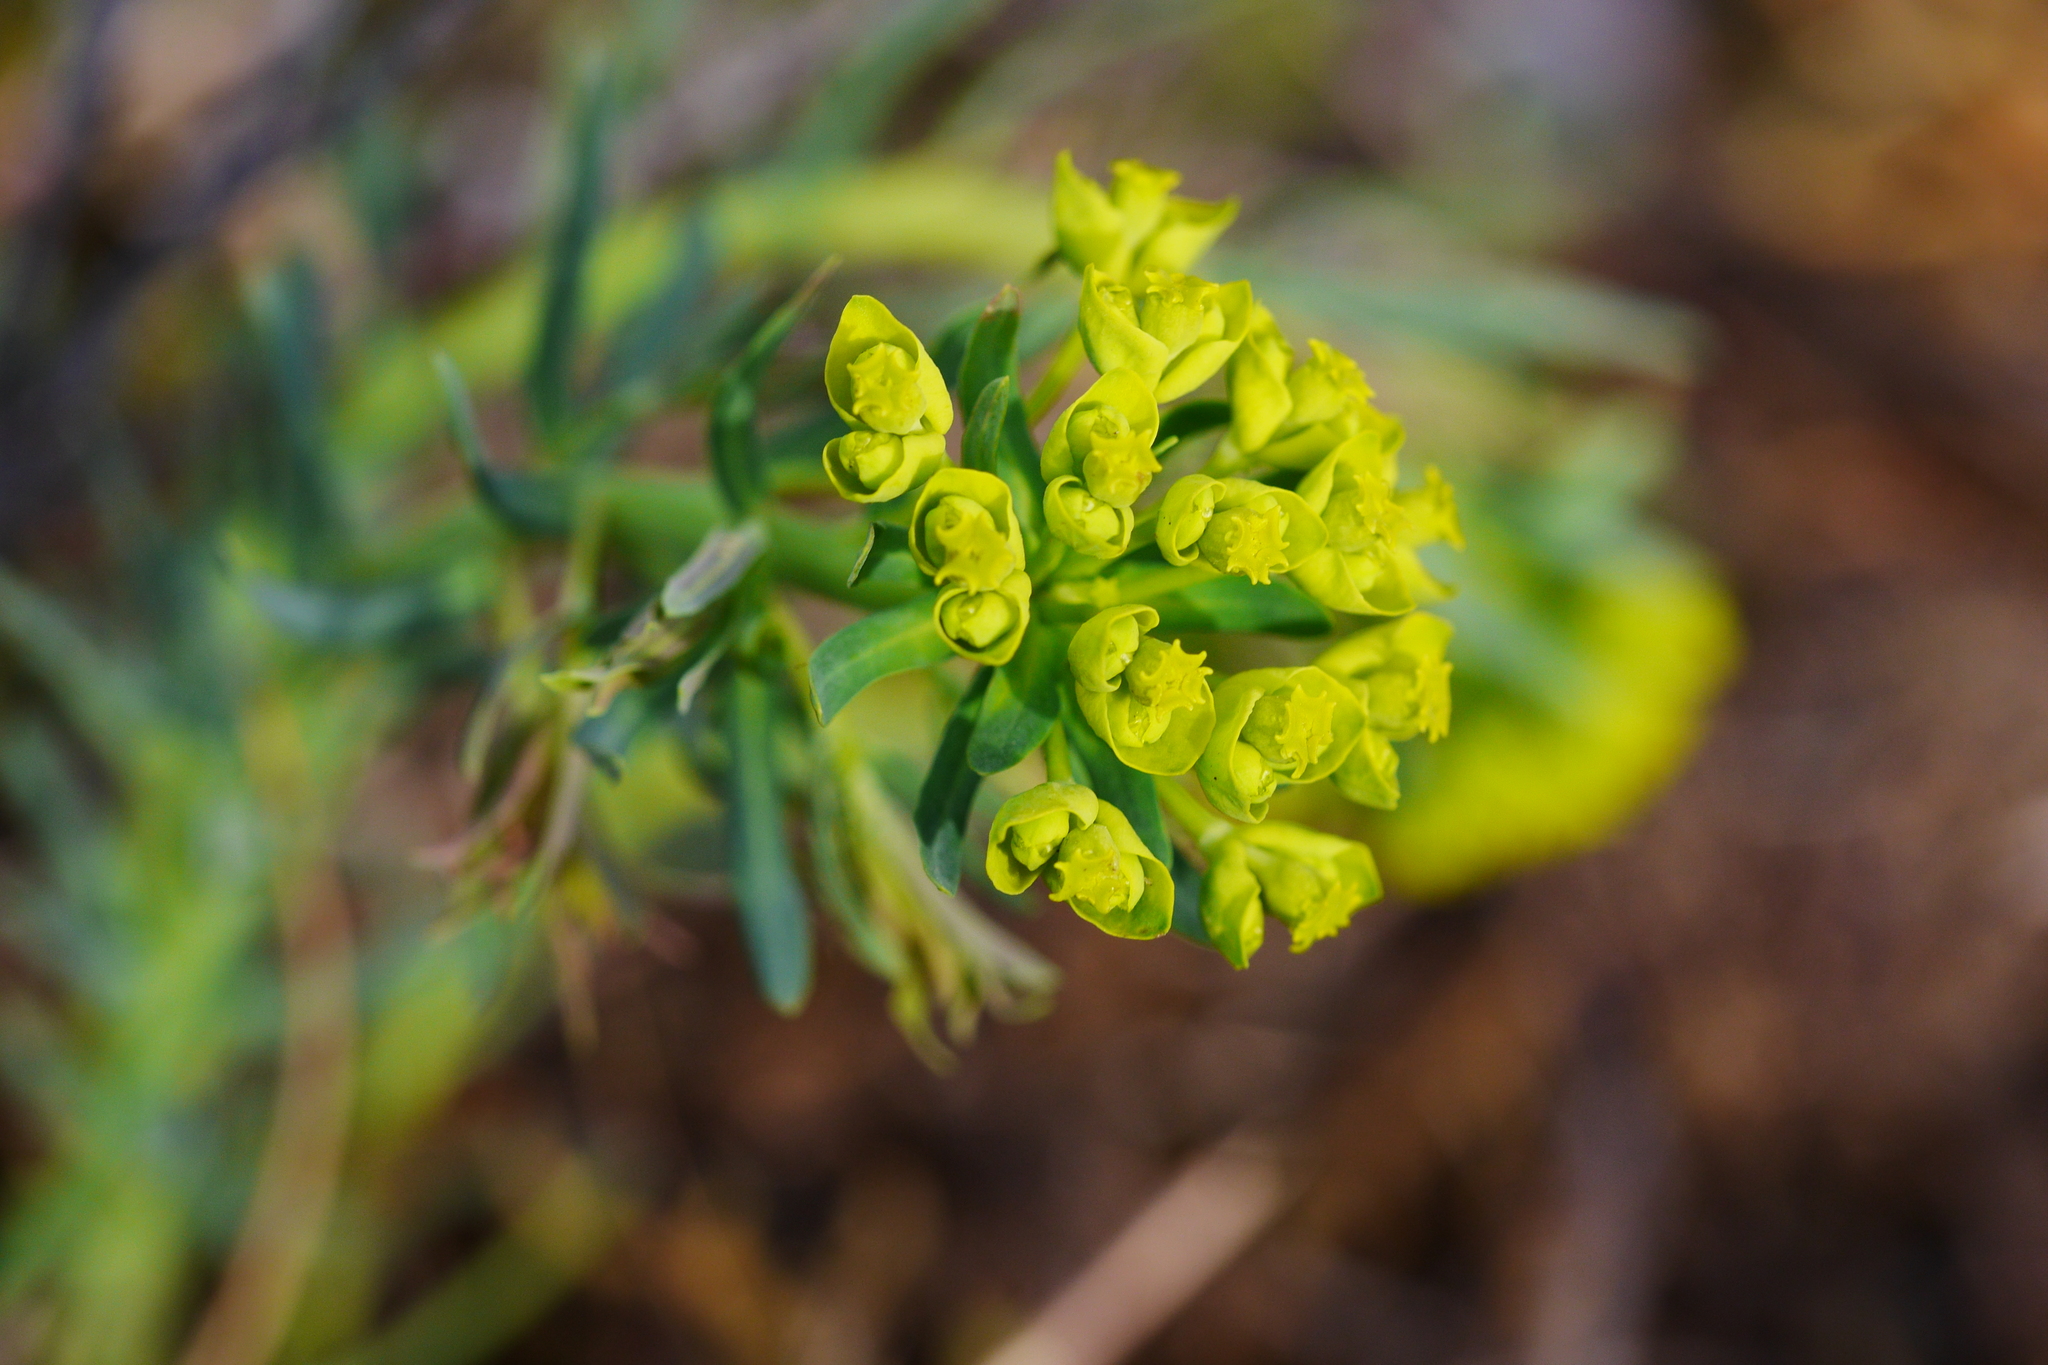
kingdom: Plantae
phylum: Tracheophyta
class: Magnoliopsida
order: Malpighiales
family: Euphorbiaceae
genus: Euphorbia
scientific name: Euphorbia cyparissias
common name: Cypress spurge
